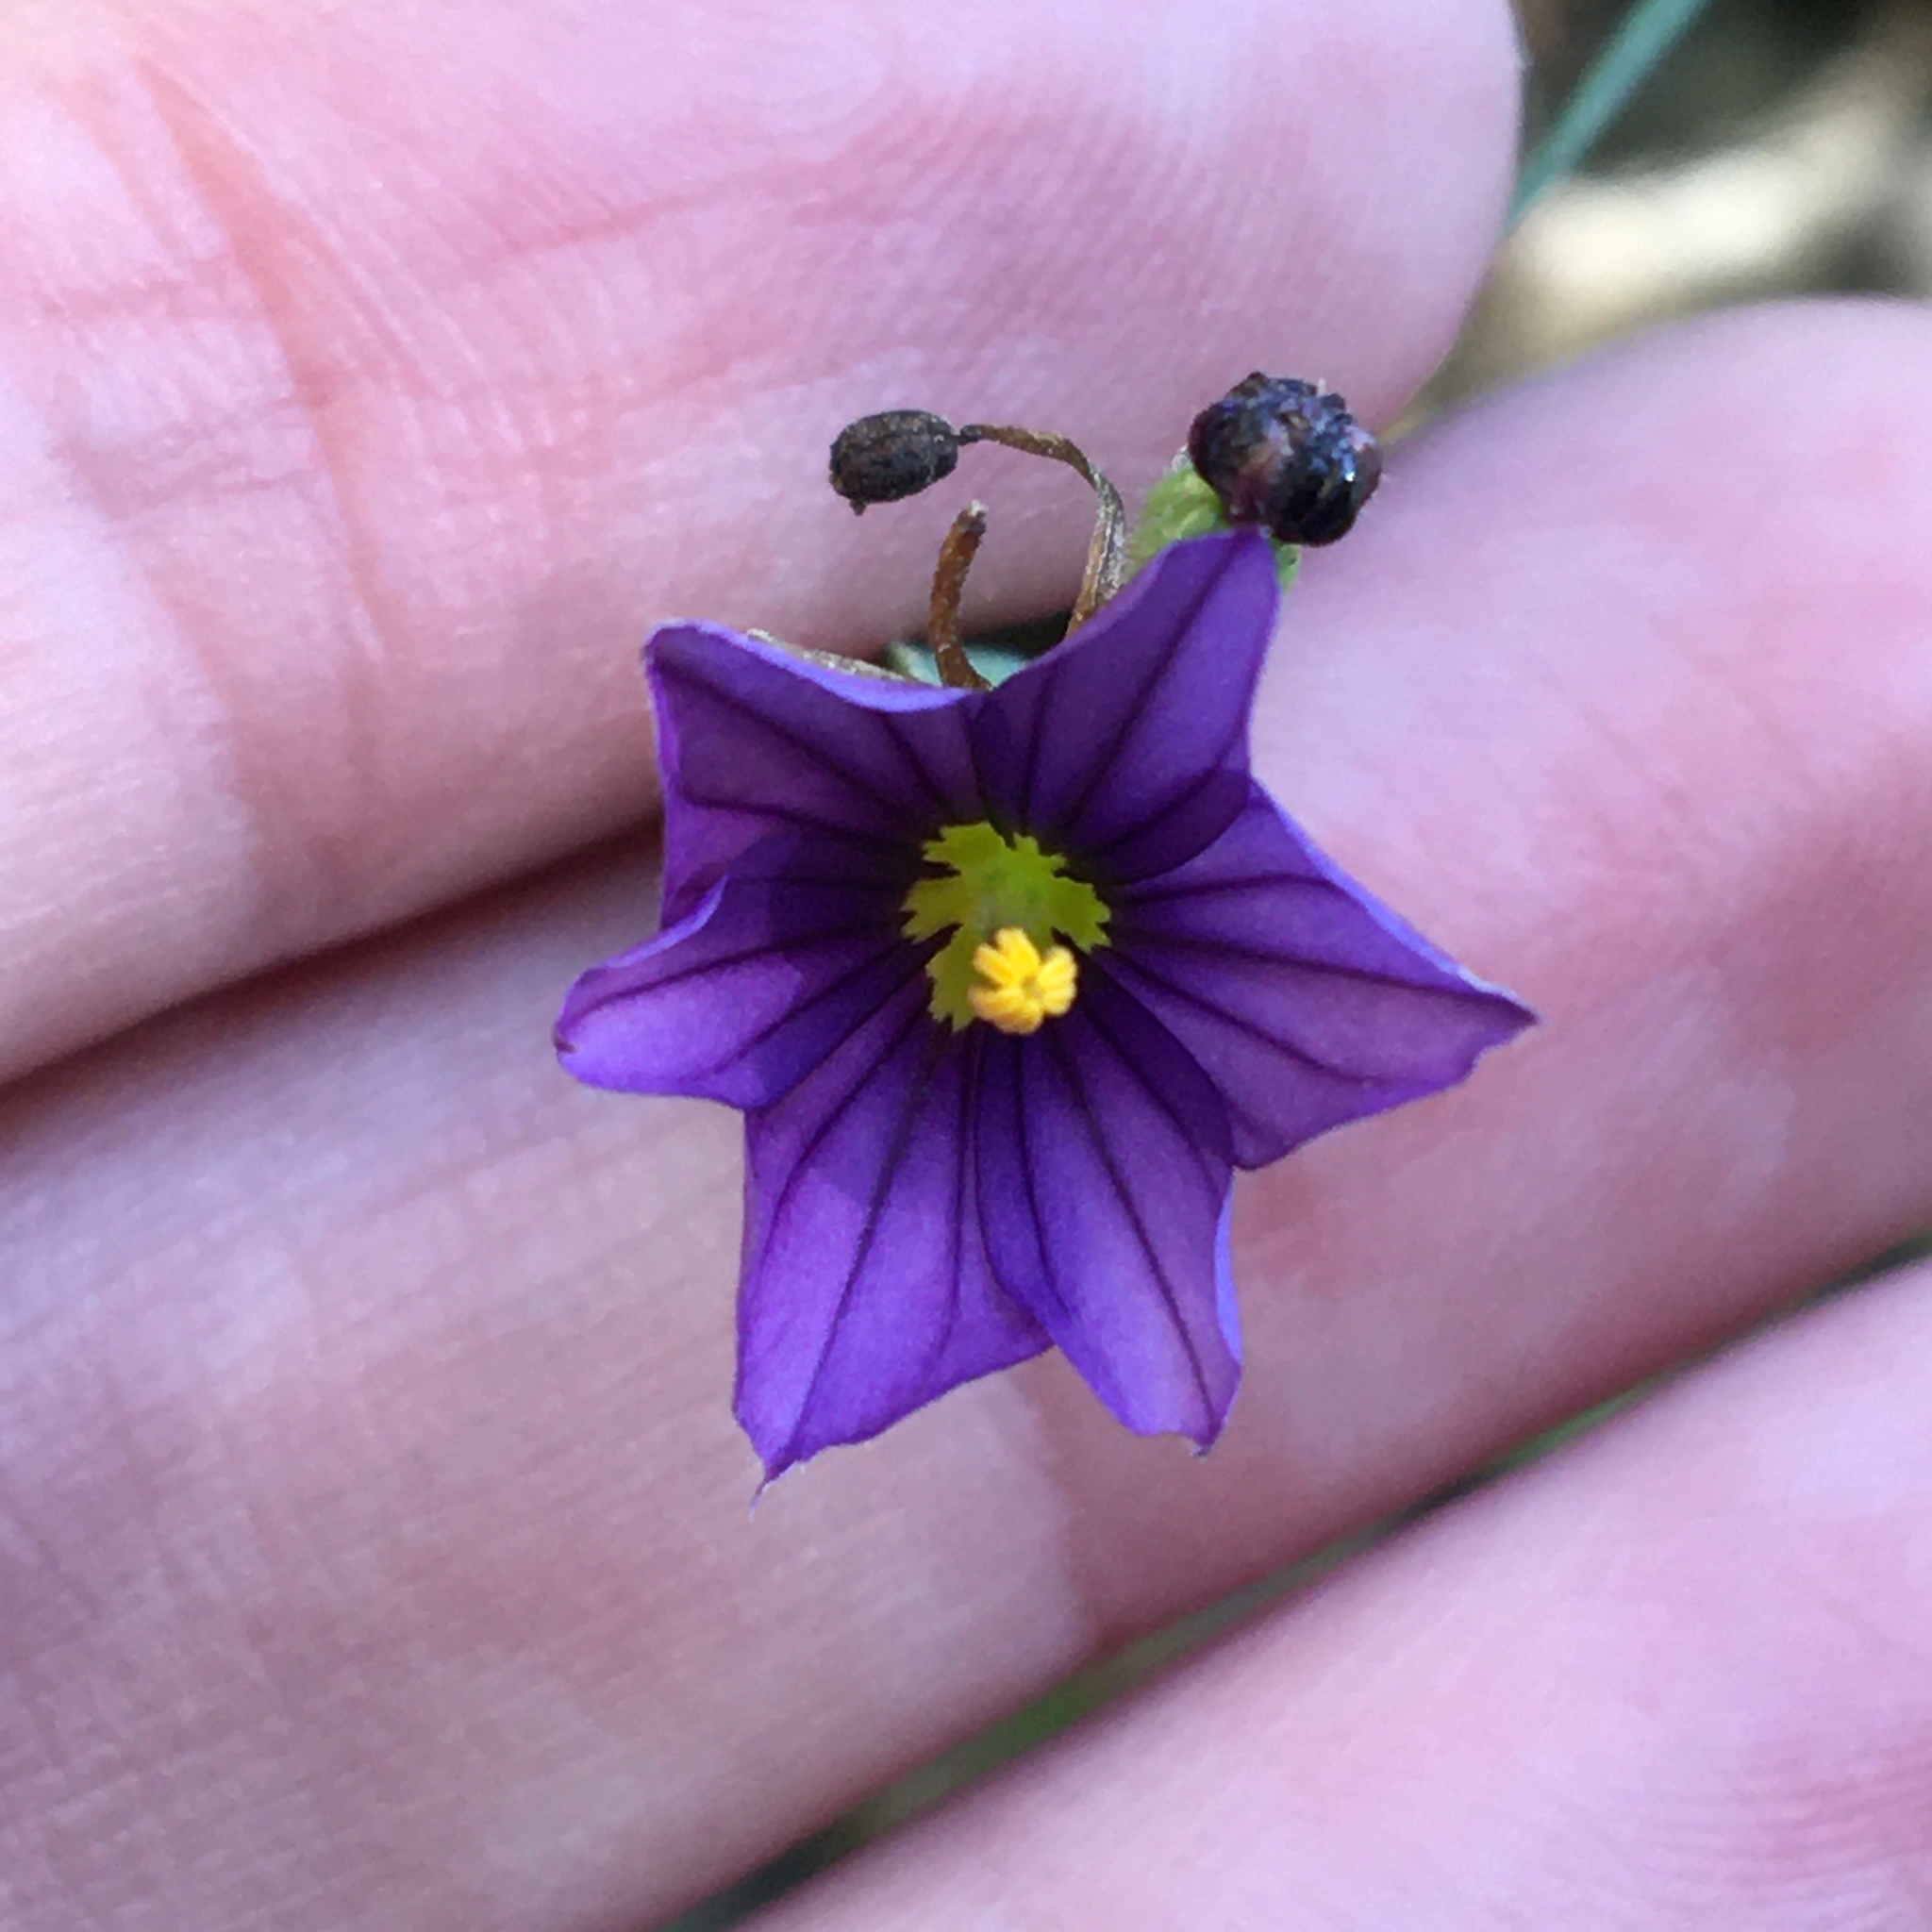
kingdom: Plantae
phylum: Tracheophyta
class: Liliopsida
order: Asparagales
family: Iridaceae
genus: Sisyrinchium
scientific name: Sisyrinchium bellum
